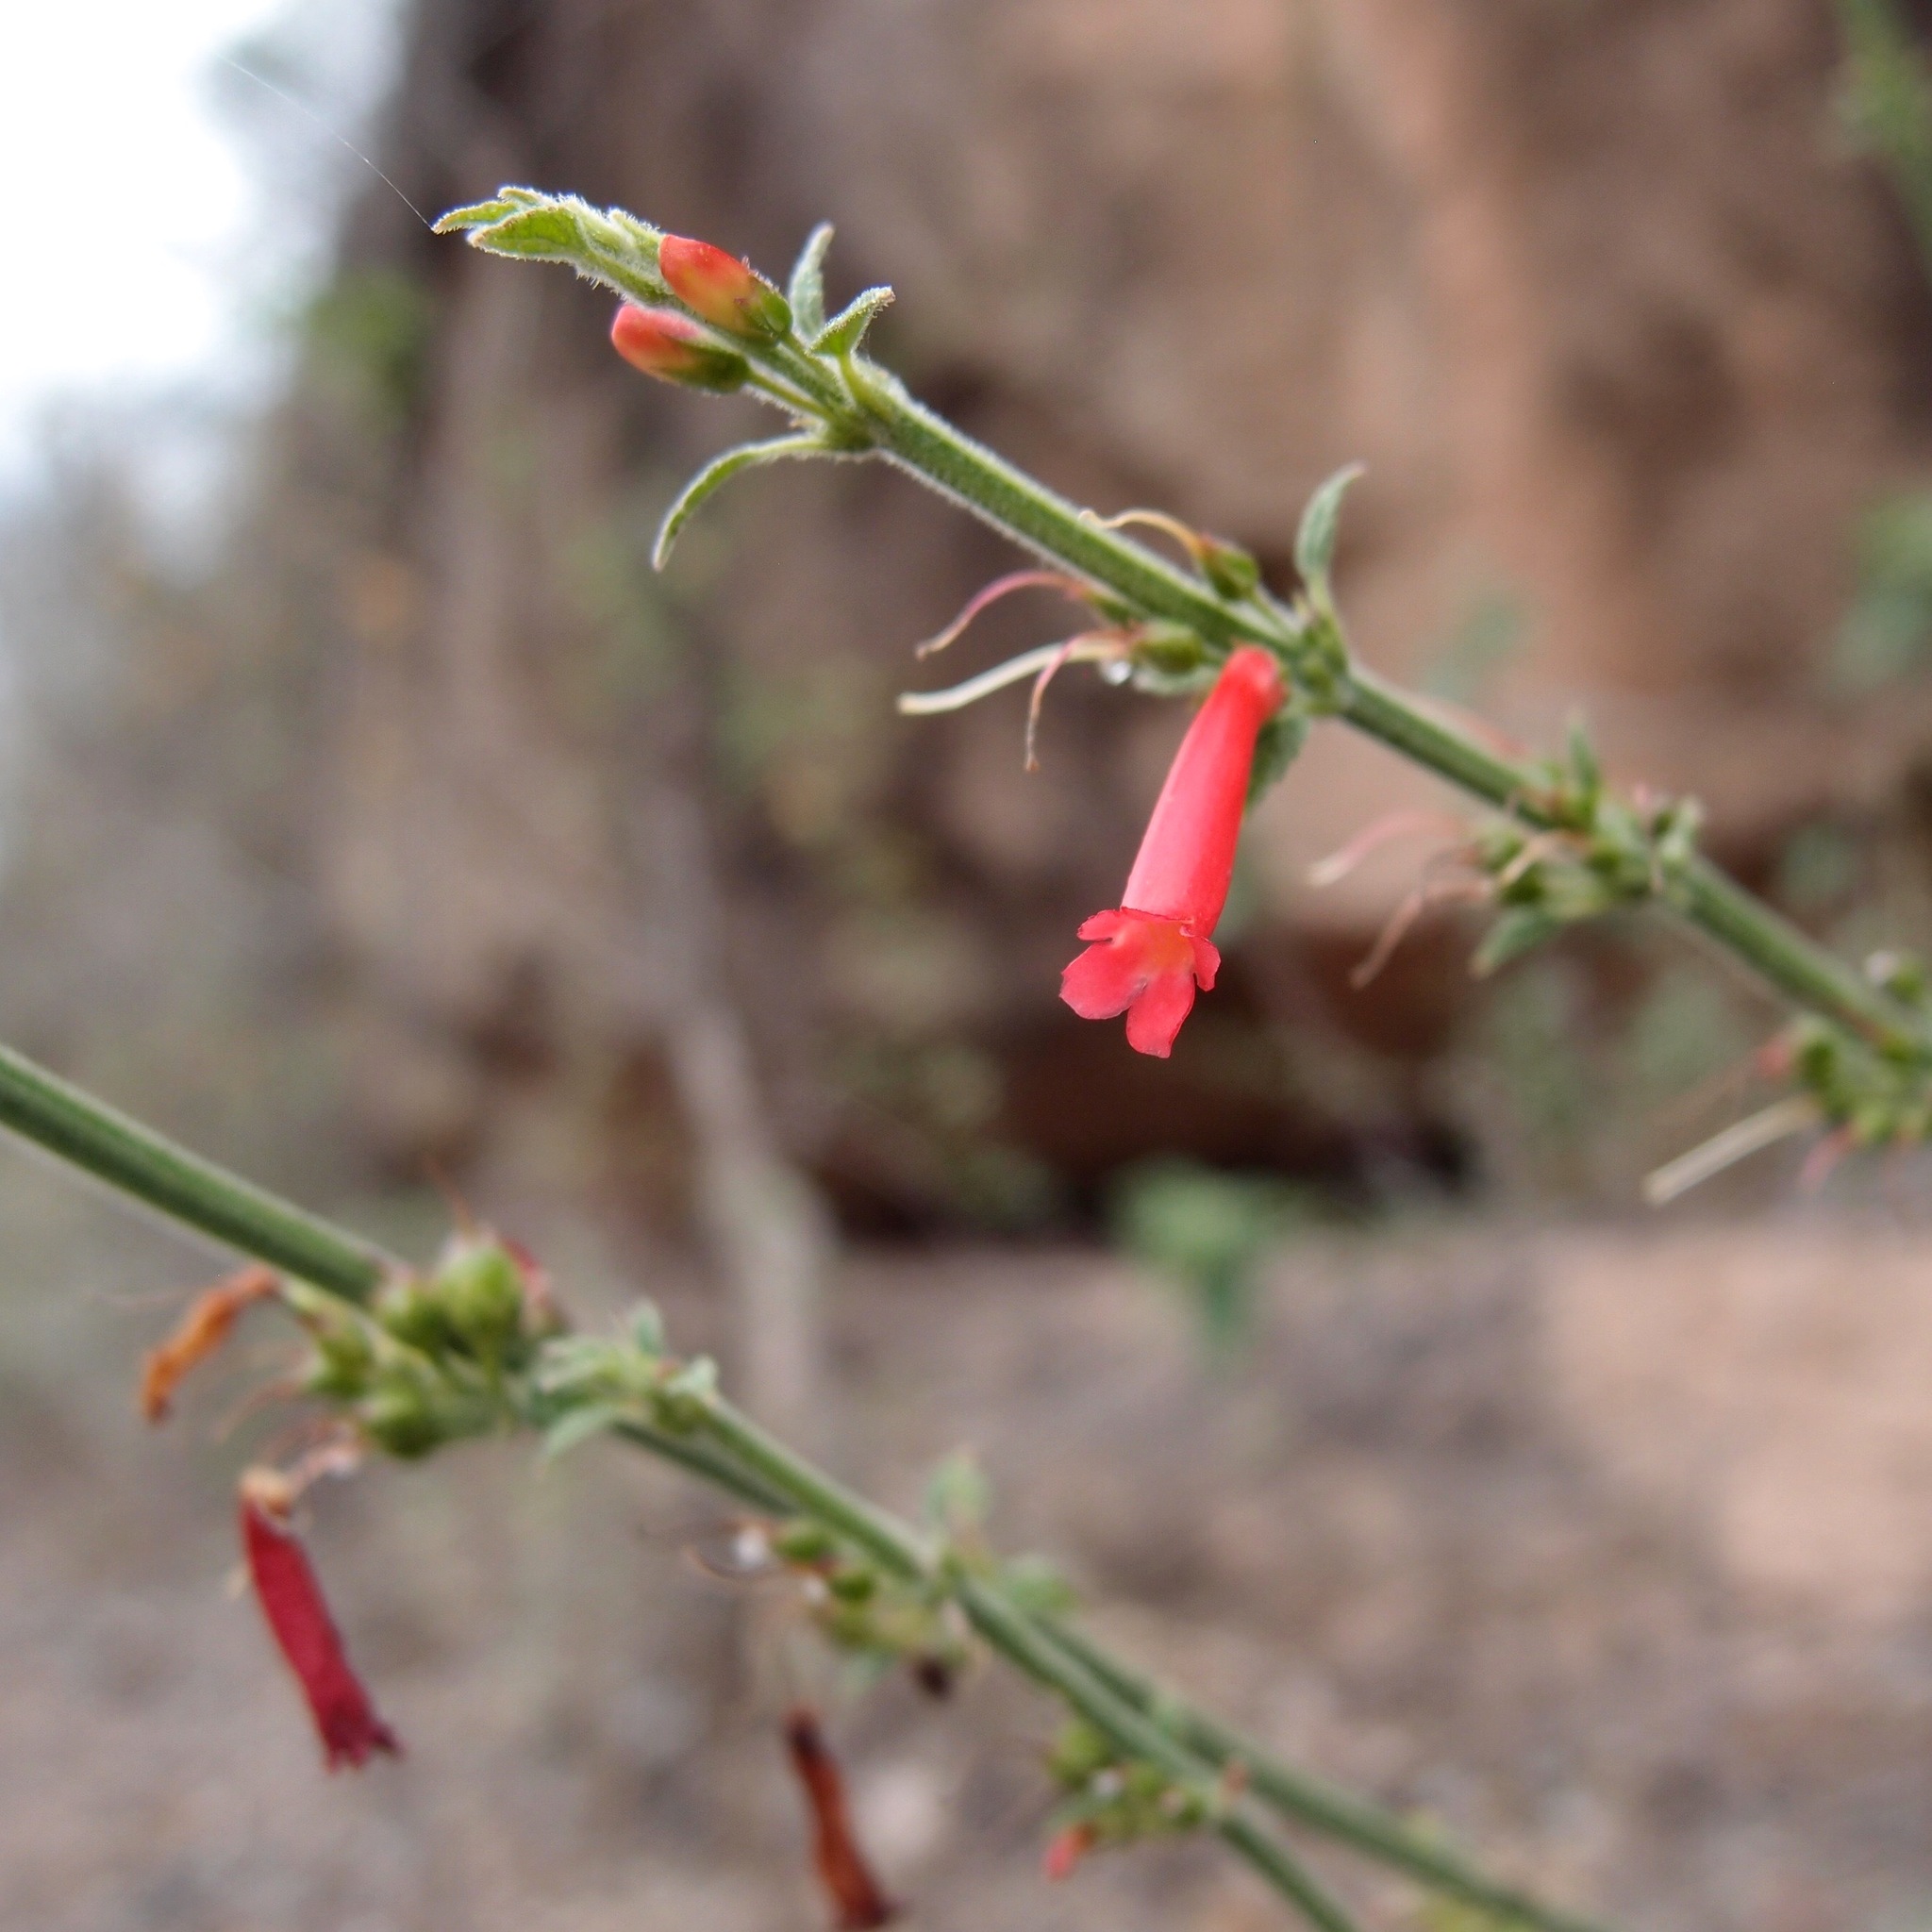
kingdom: Plantae
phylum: Tracheophyta
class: Magnoliopsida
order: Lamiales
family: Plantaginaceae
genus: Russelia
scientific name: Russelia sonorensis
